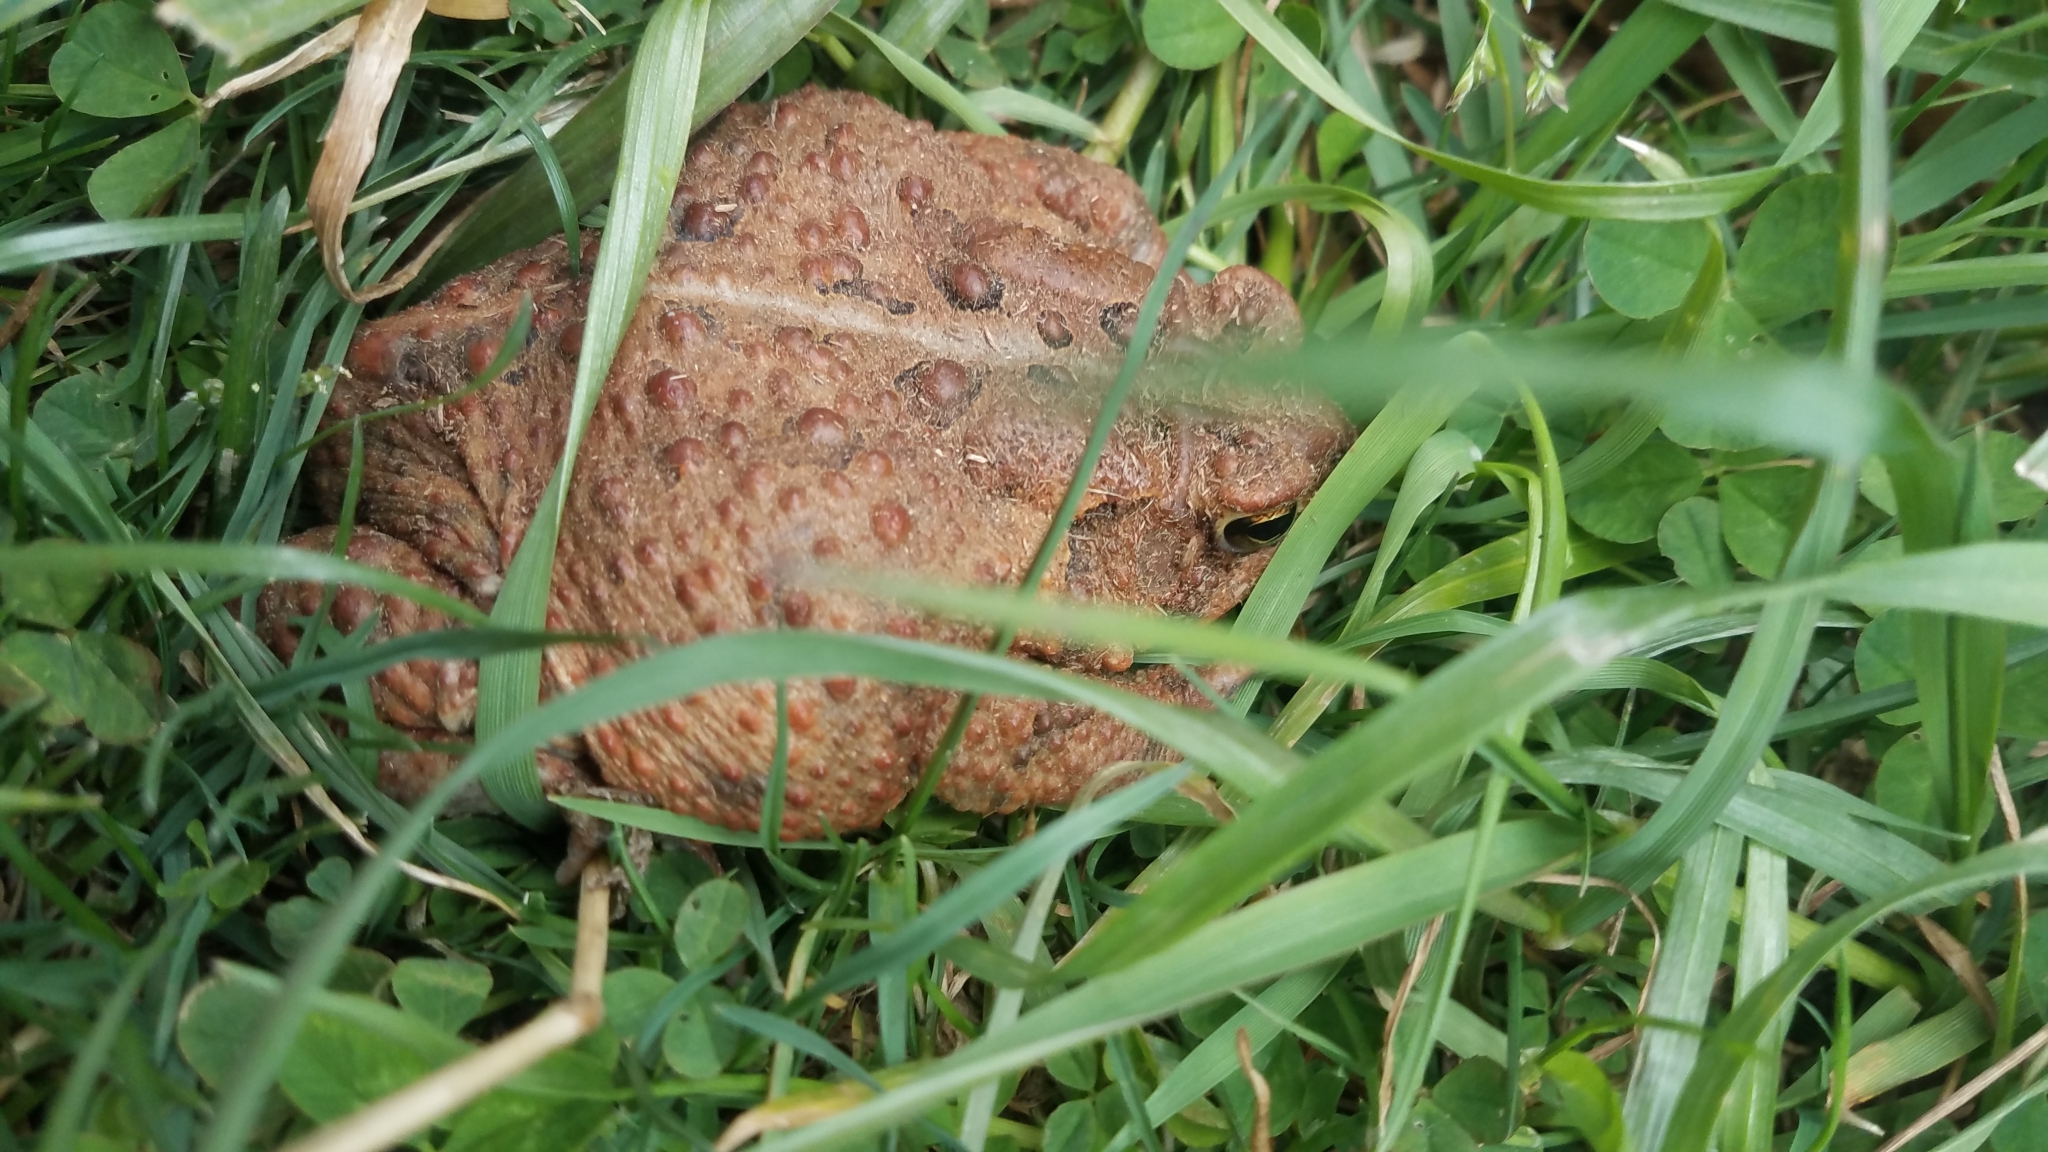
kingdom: Animalia
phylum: Chordata
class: Amphibia
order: Anura
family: Bufonidae
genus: Anaxyrus
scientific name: Anaxyrus americanus
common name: American toad
